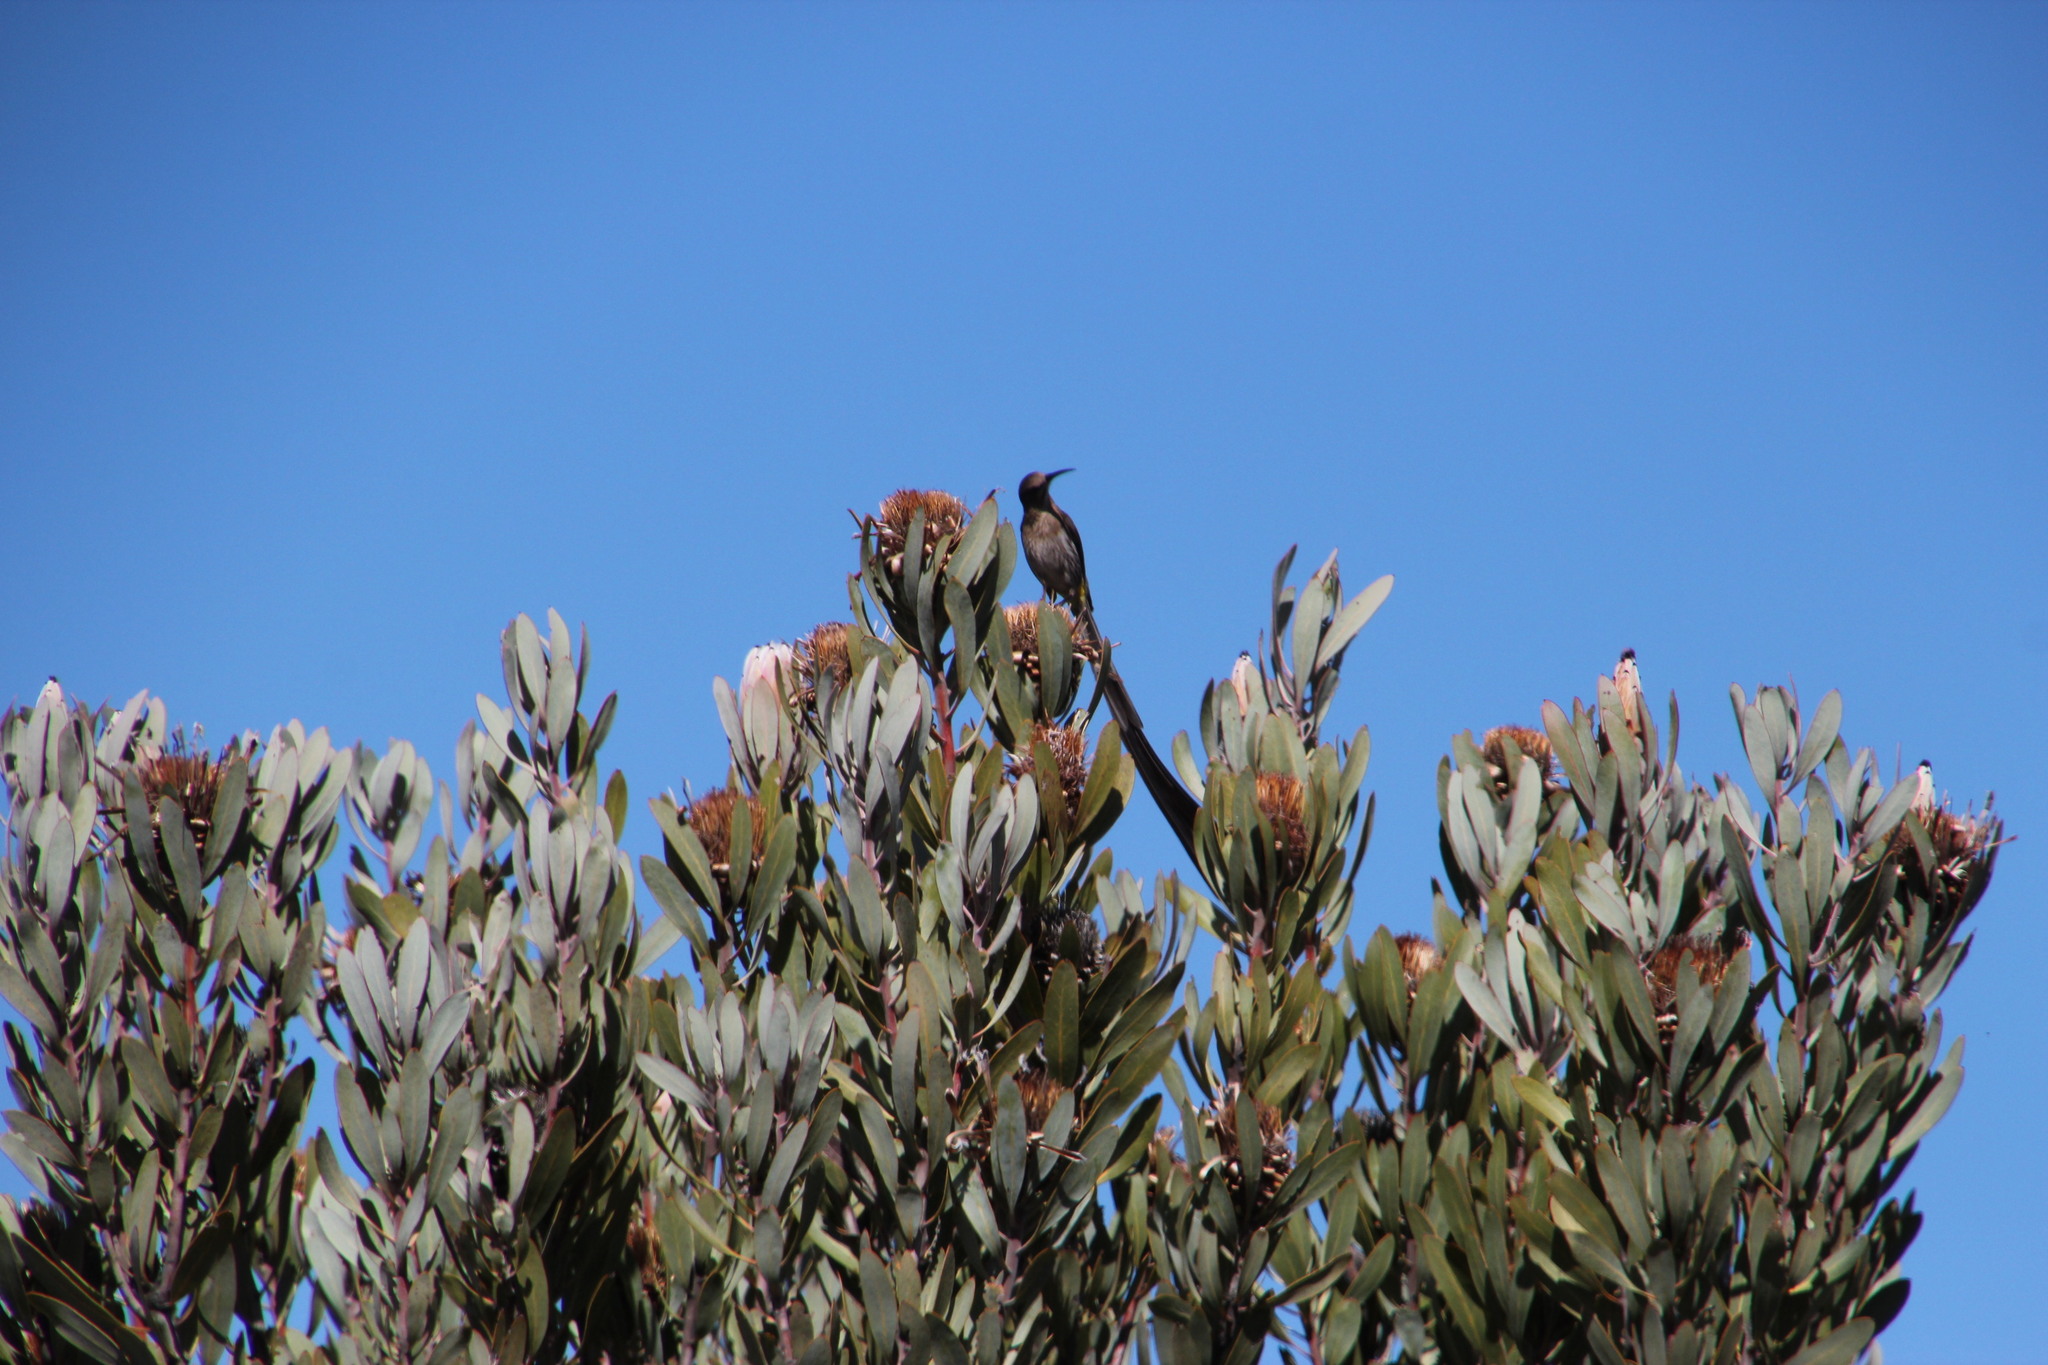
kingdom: Animalia
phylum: Chordata
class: Aves
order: Passeriformes
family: Promeropidae
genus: Promerops
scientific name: Promerops cafer
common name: Cape sugarbird
